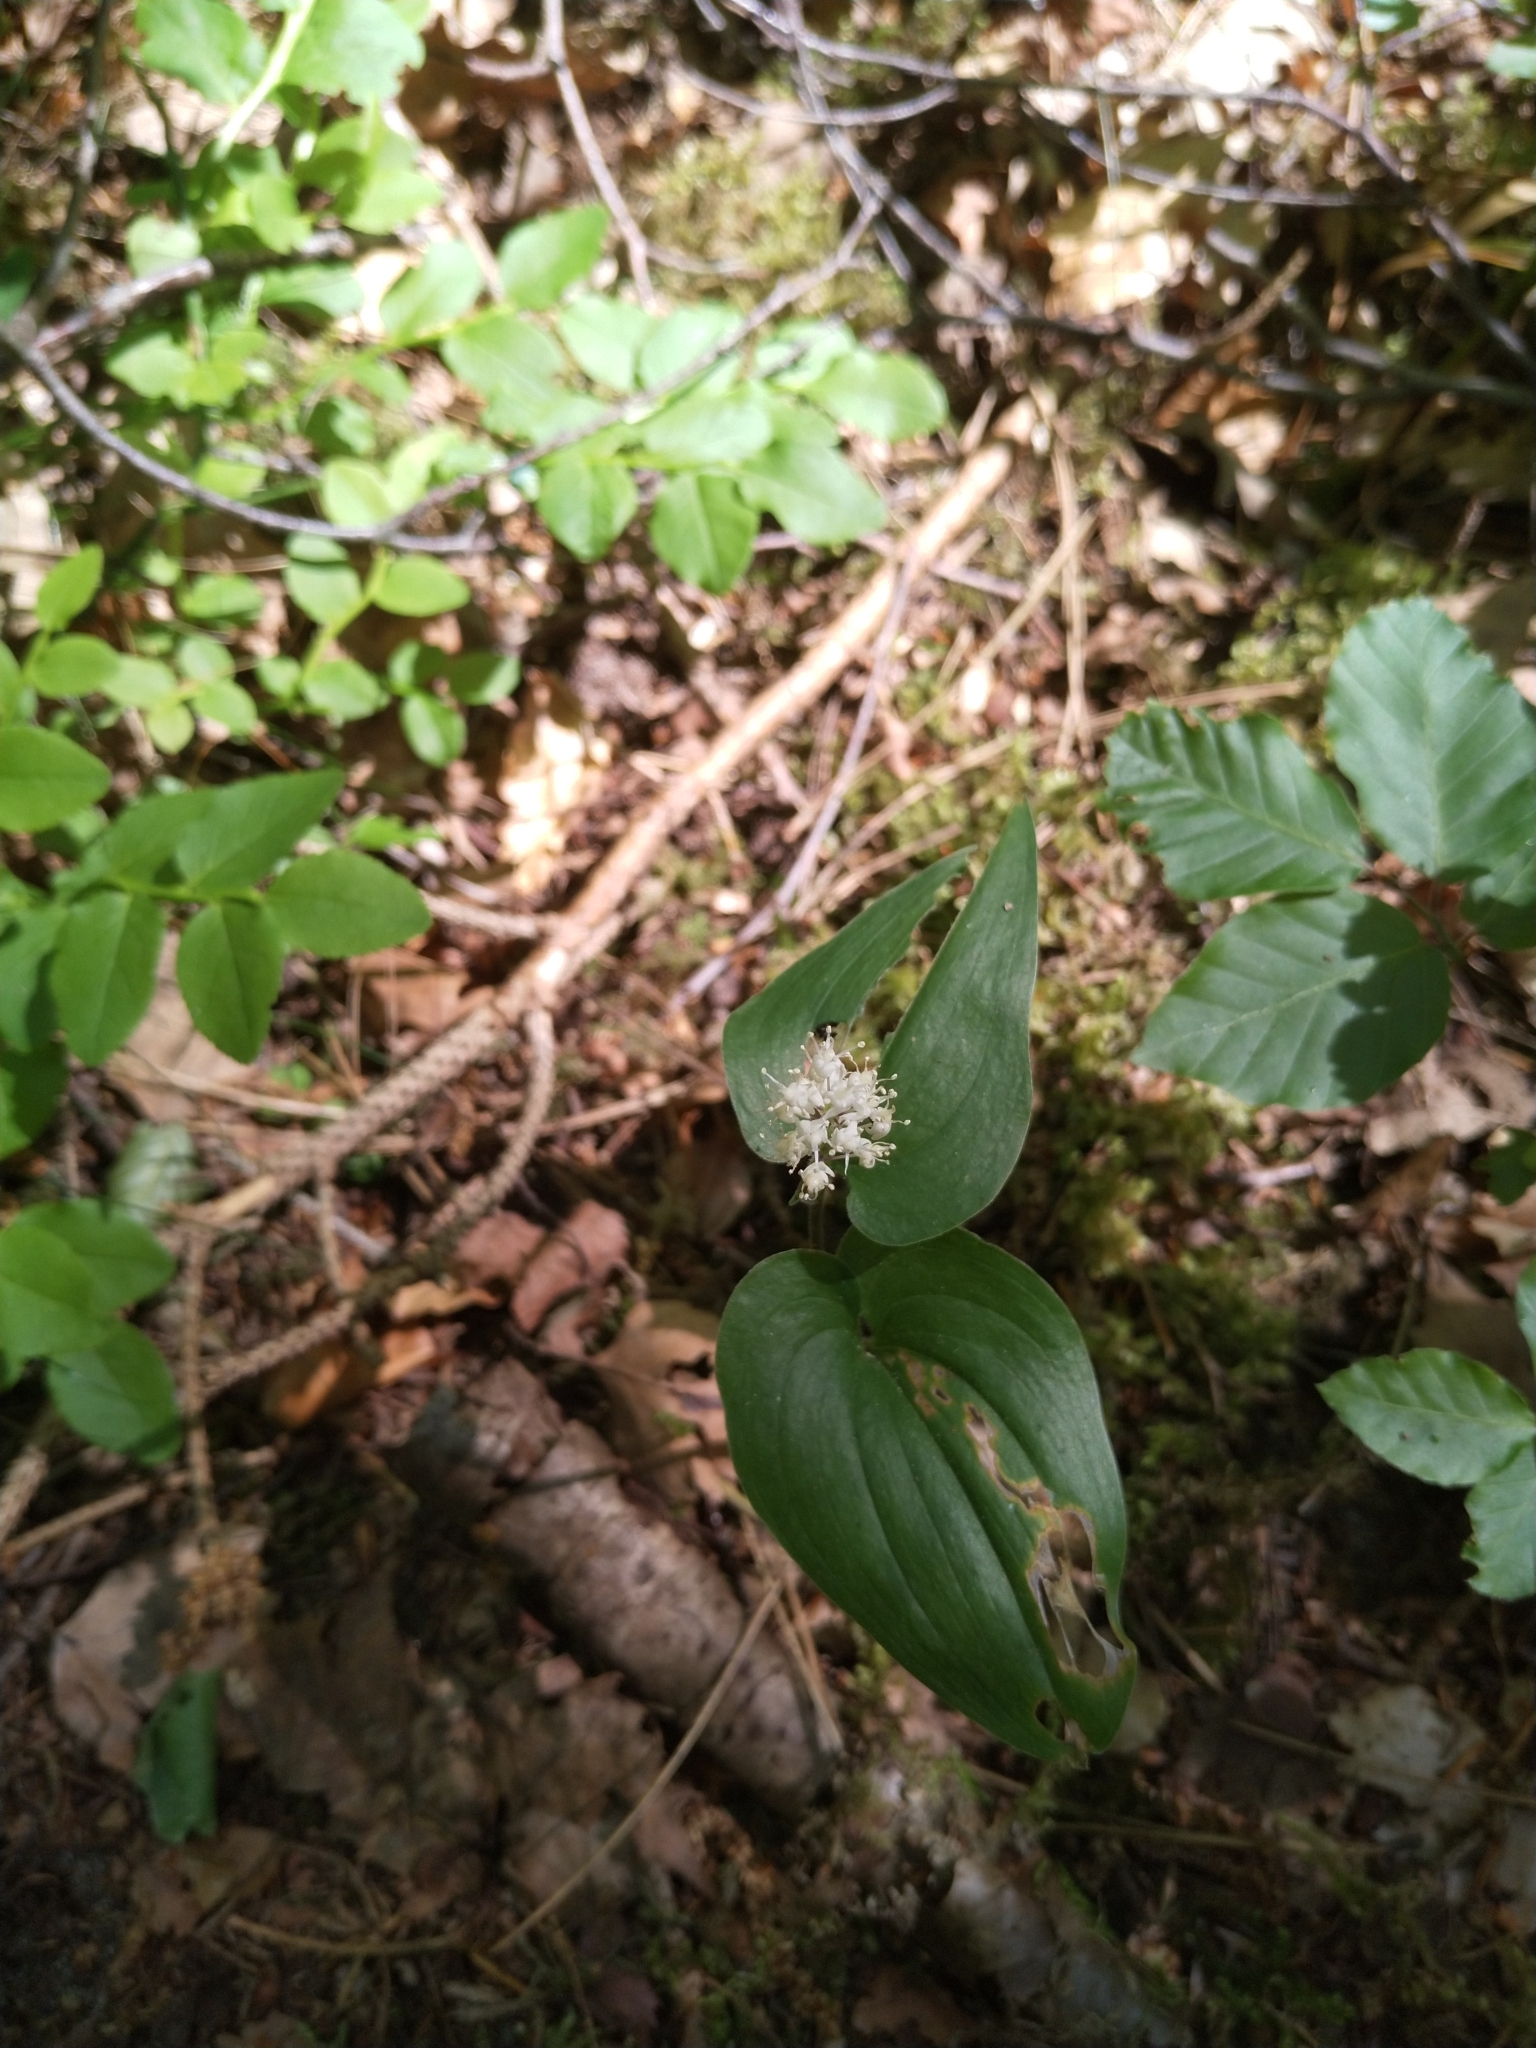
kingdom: Plantae
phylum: Tracheophyta
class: Liliopsida
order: Asparagales
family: Asparagaceae
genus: Maianthemum
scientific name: Maianthemum bifolium
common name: May lily
